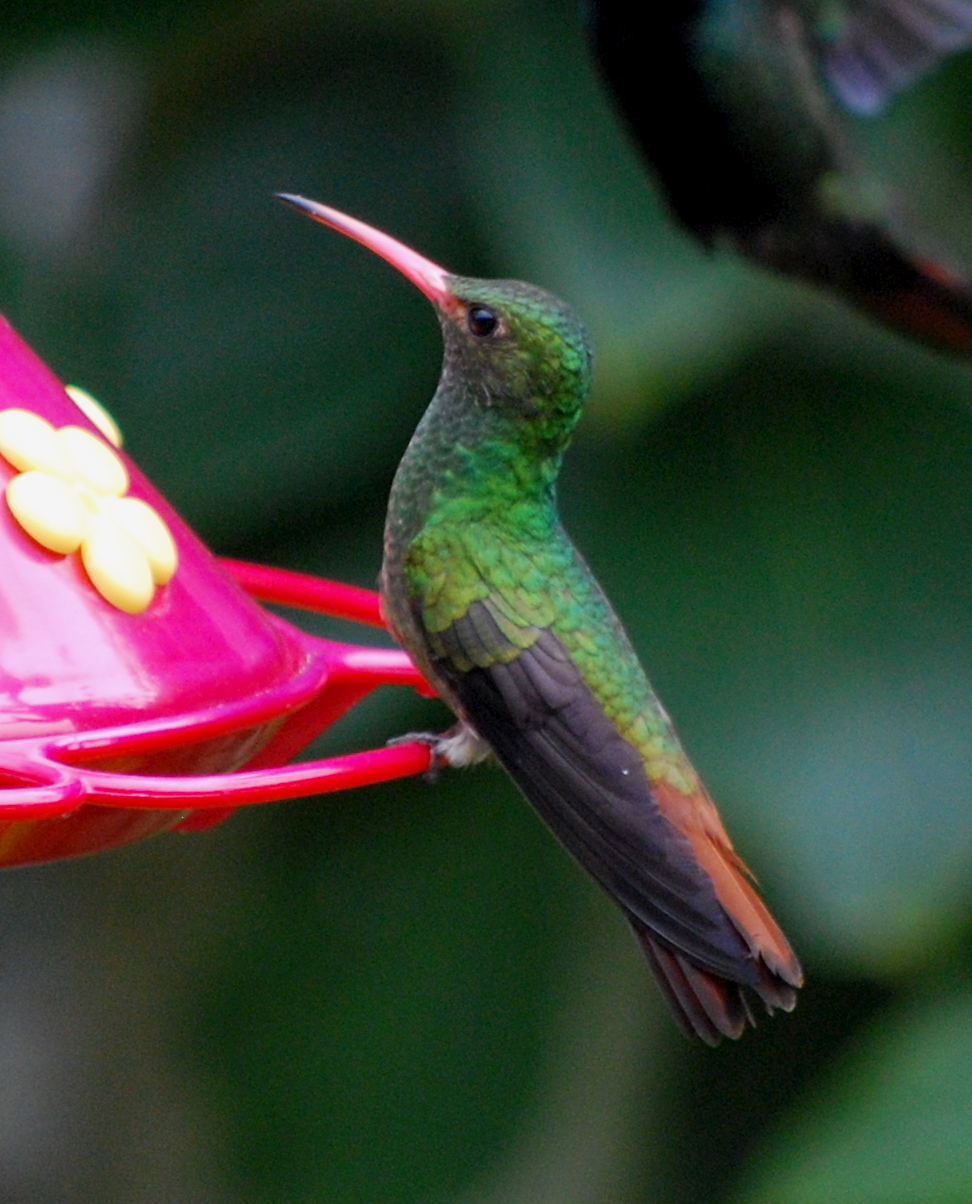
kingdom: Animalia
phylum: Chordata
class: Aves
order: Apodiformes
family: Trochilidae
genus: Amazilia
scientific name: Amazilia tzacatl
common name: Rufous-tailed hummingbird
